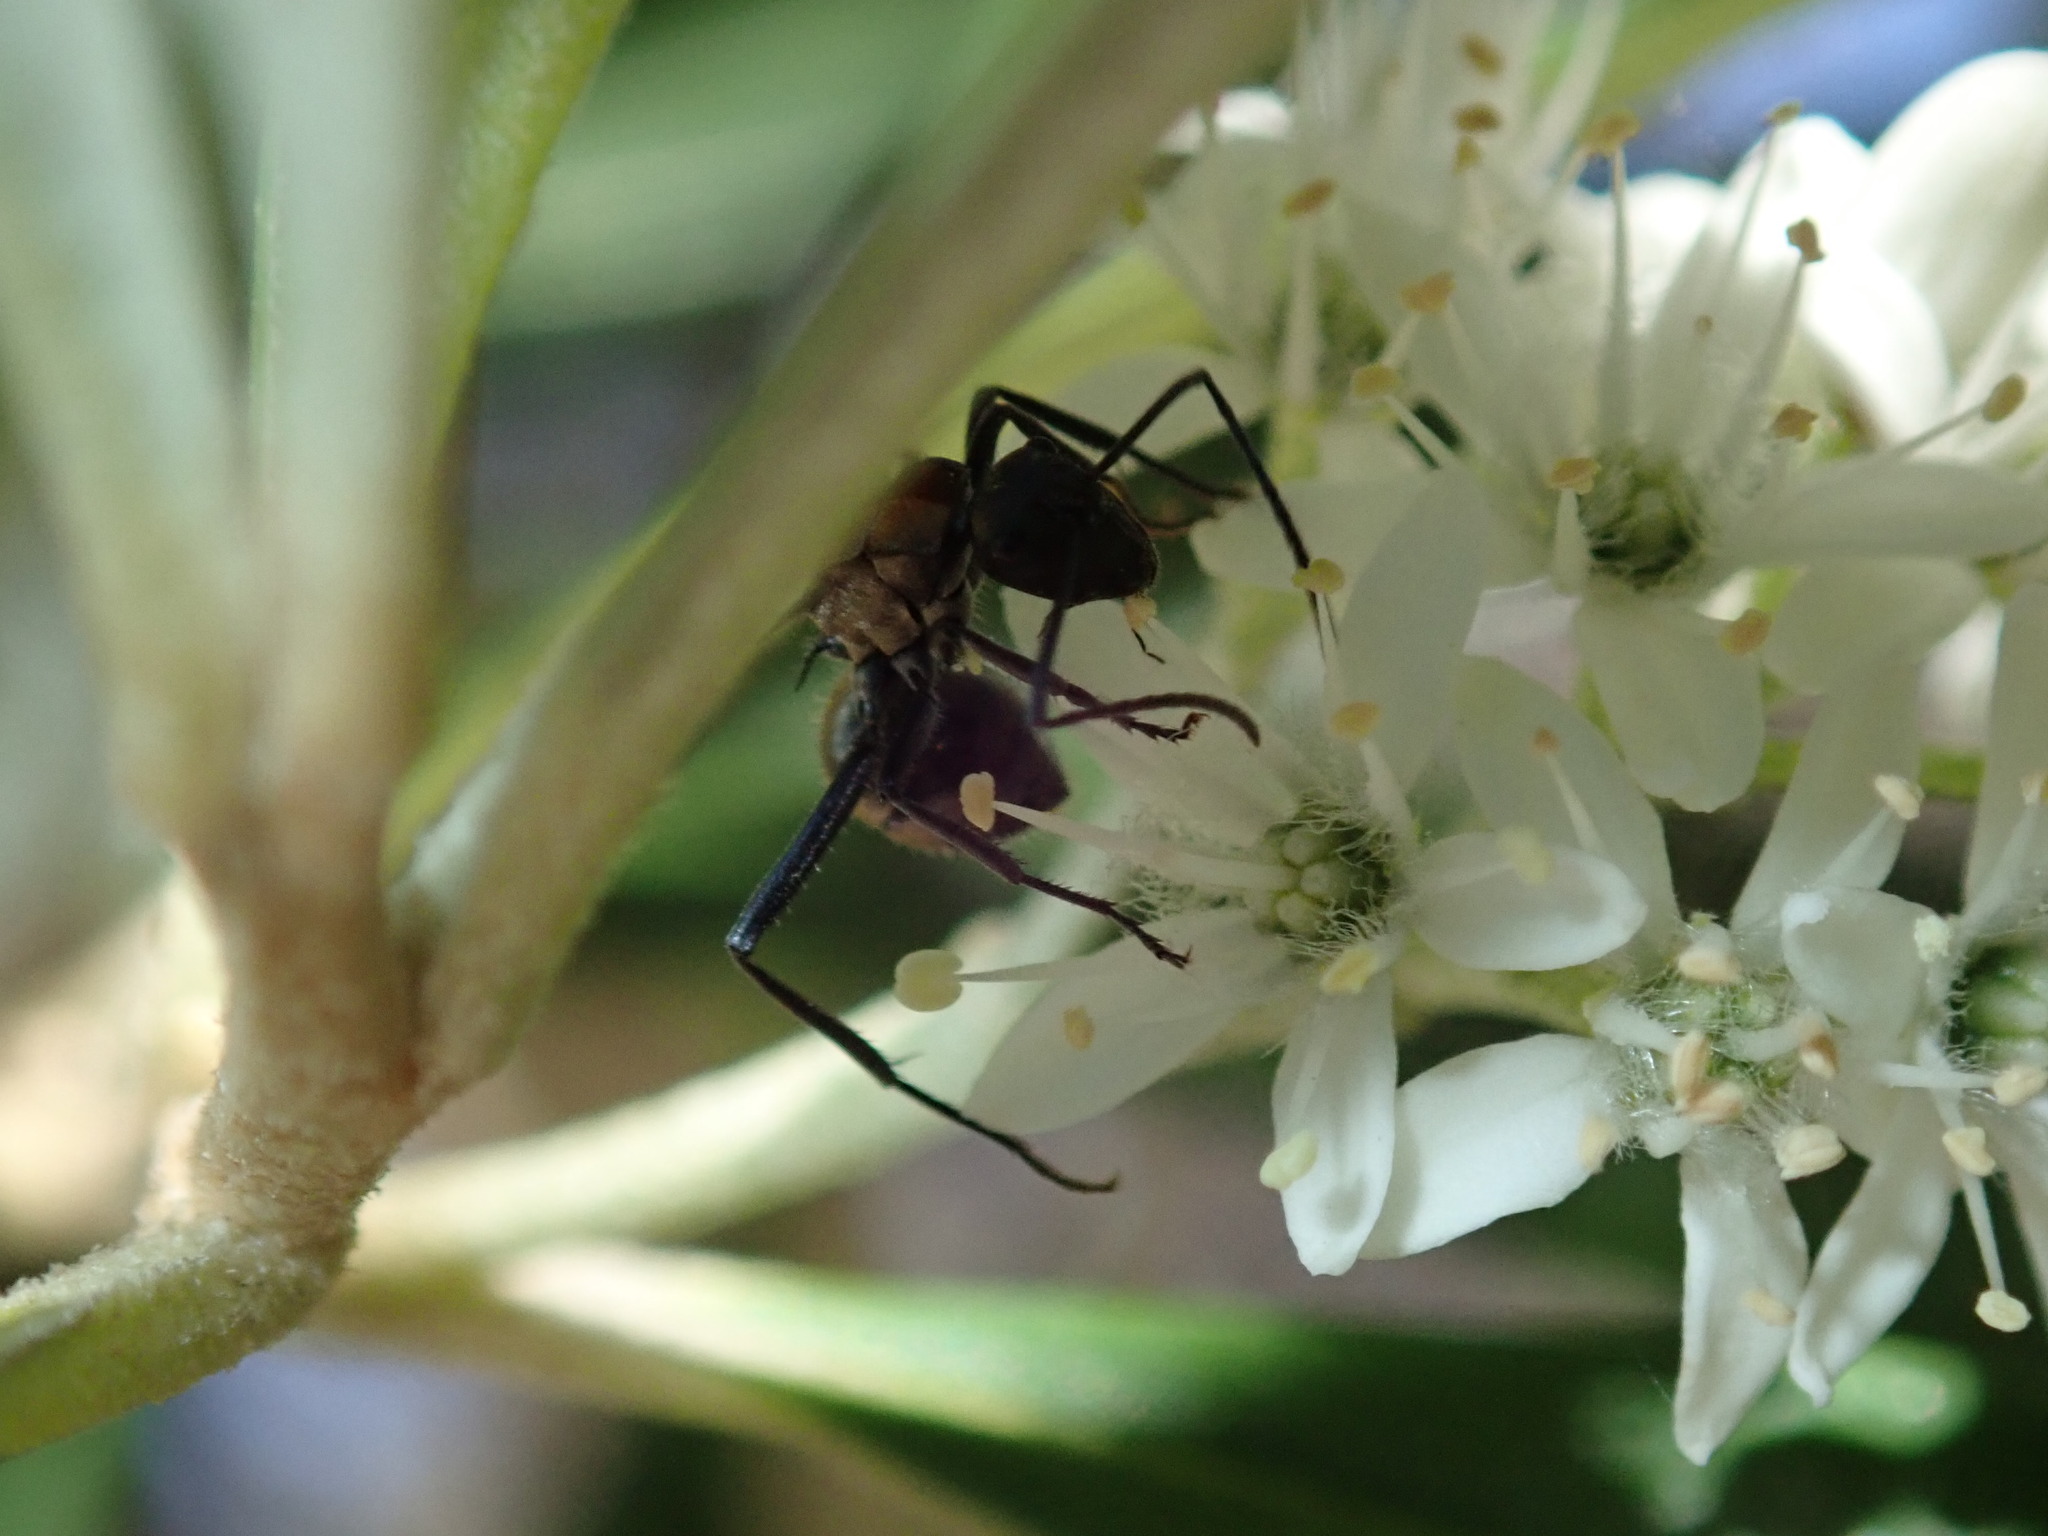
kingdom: Animalia
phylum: Arthropoda
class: Insecta
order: Hymenoptera
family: Formicidae
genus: Polyrhachis
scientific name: Polyrhachis ammon
